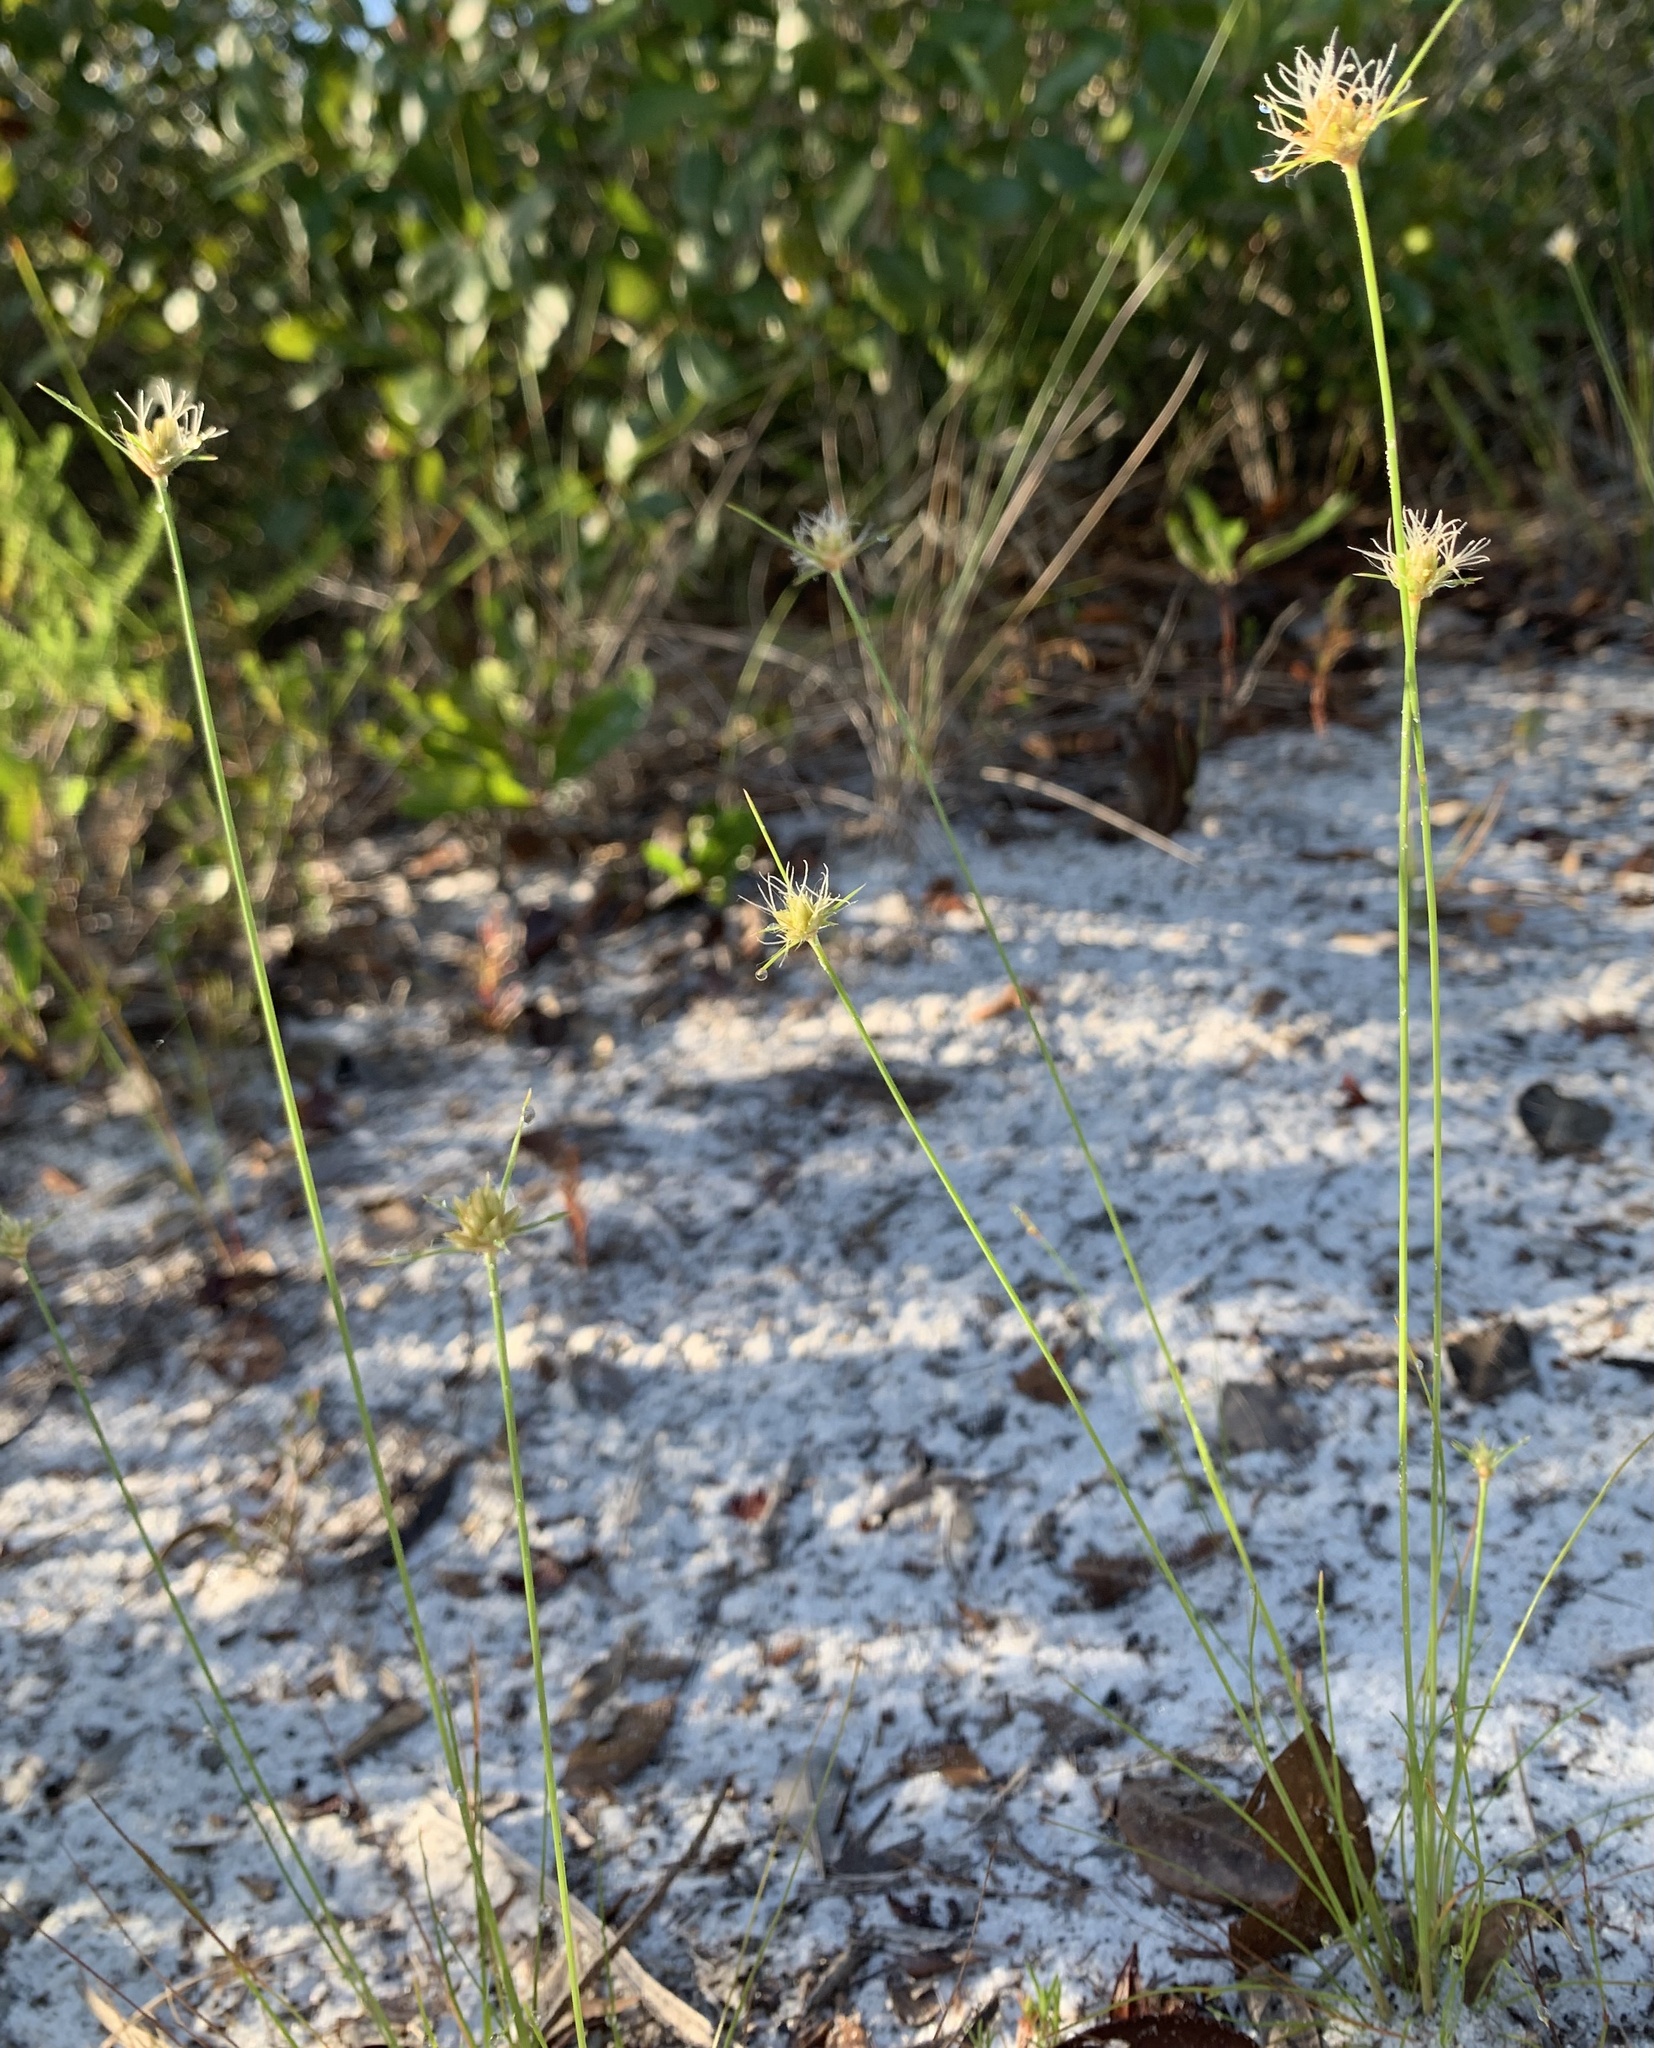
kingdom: Plantae
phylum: Tracheophyta
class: Liliopsida
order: Poales
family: Cyperaceae
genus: Bulbostylis
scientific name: Bulbostylis warei
